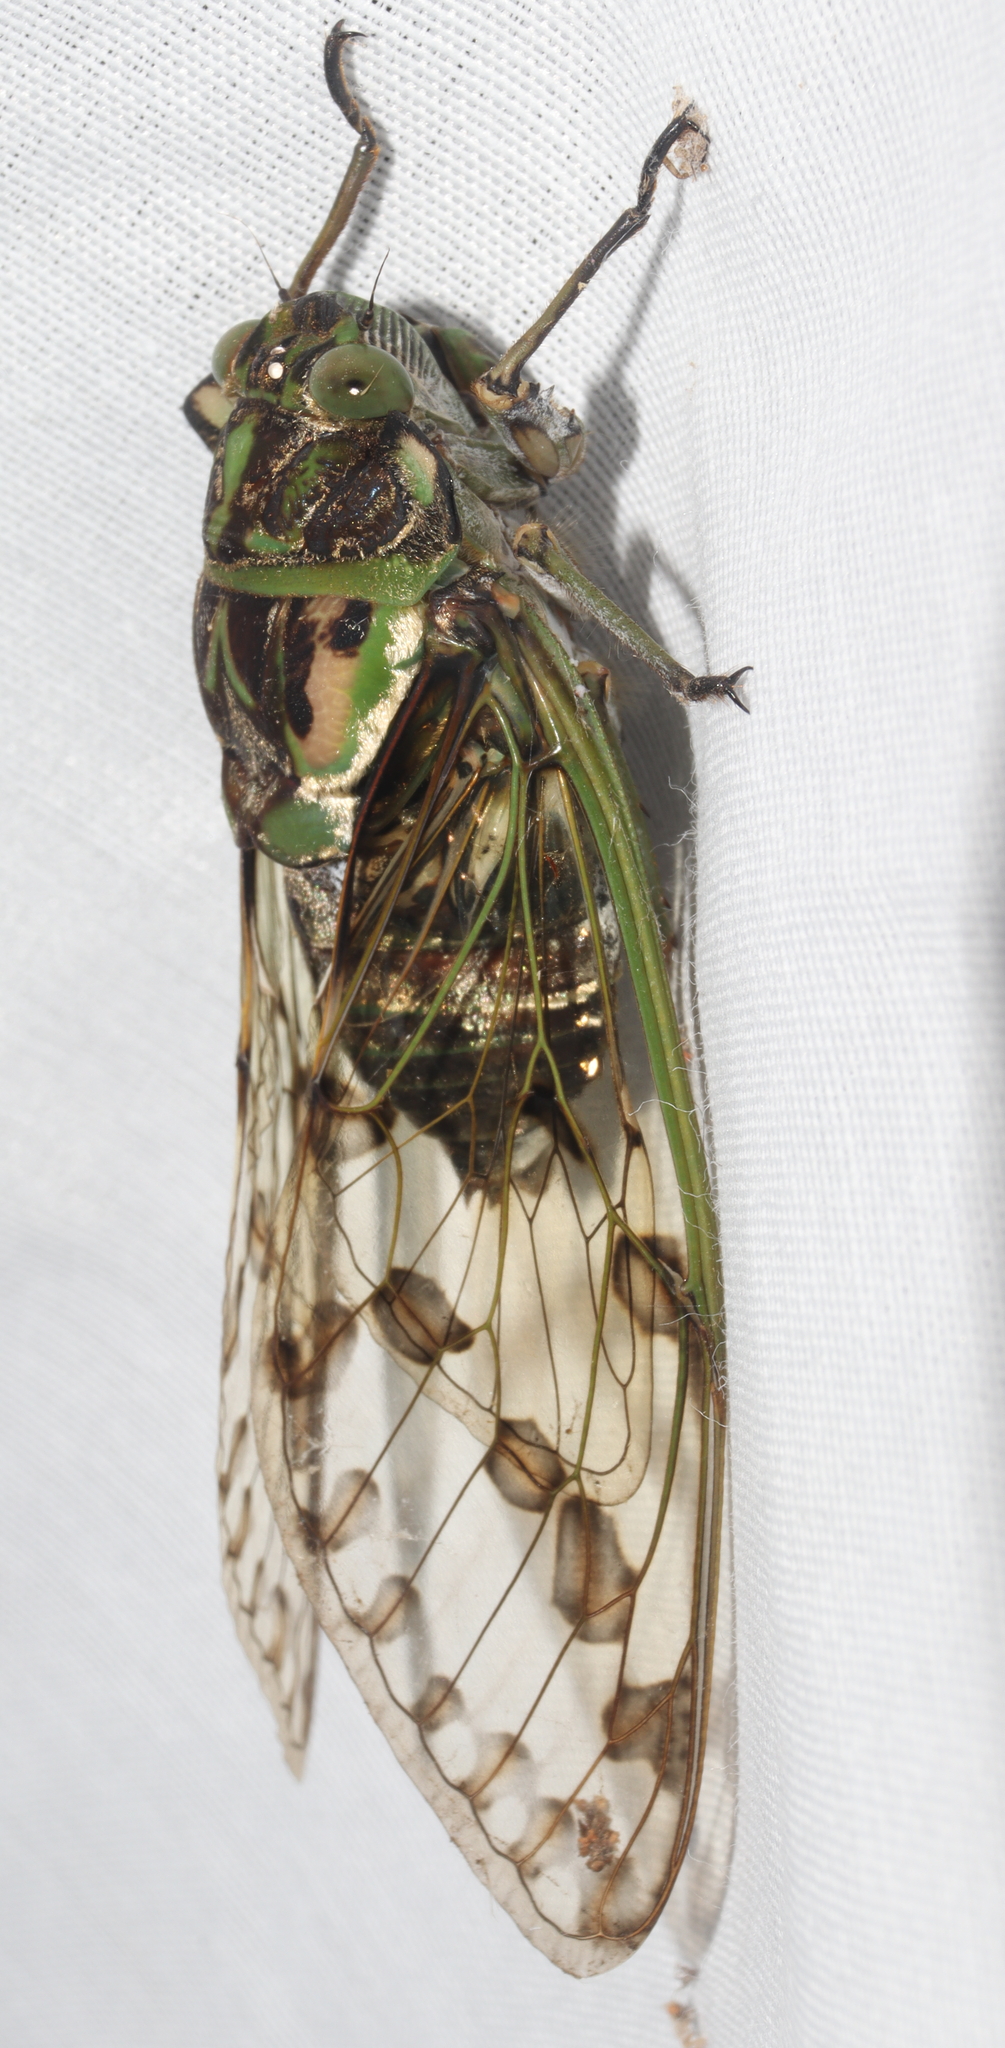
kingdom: Animalia
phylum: Arthropoda
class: Insecta
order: Hemiptera
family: Cicadidae
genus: Orellana
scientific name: Orellana
